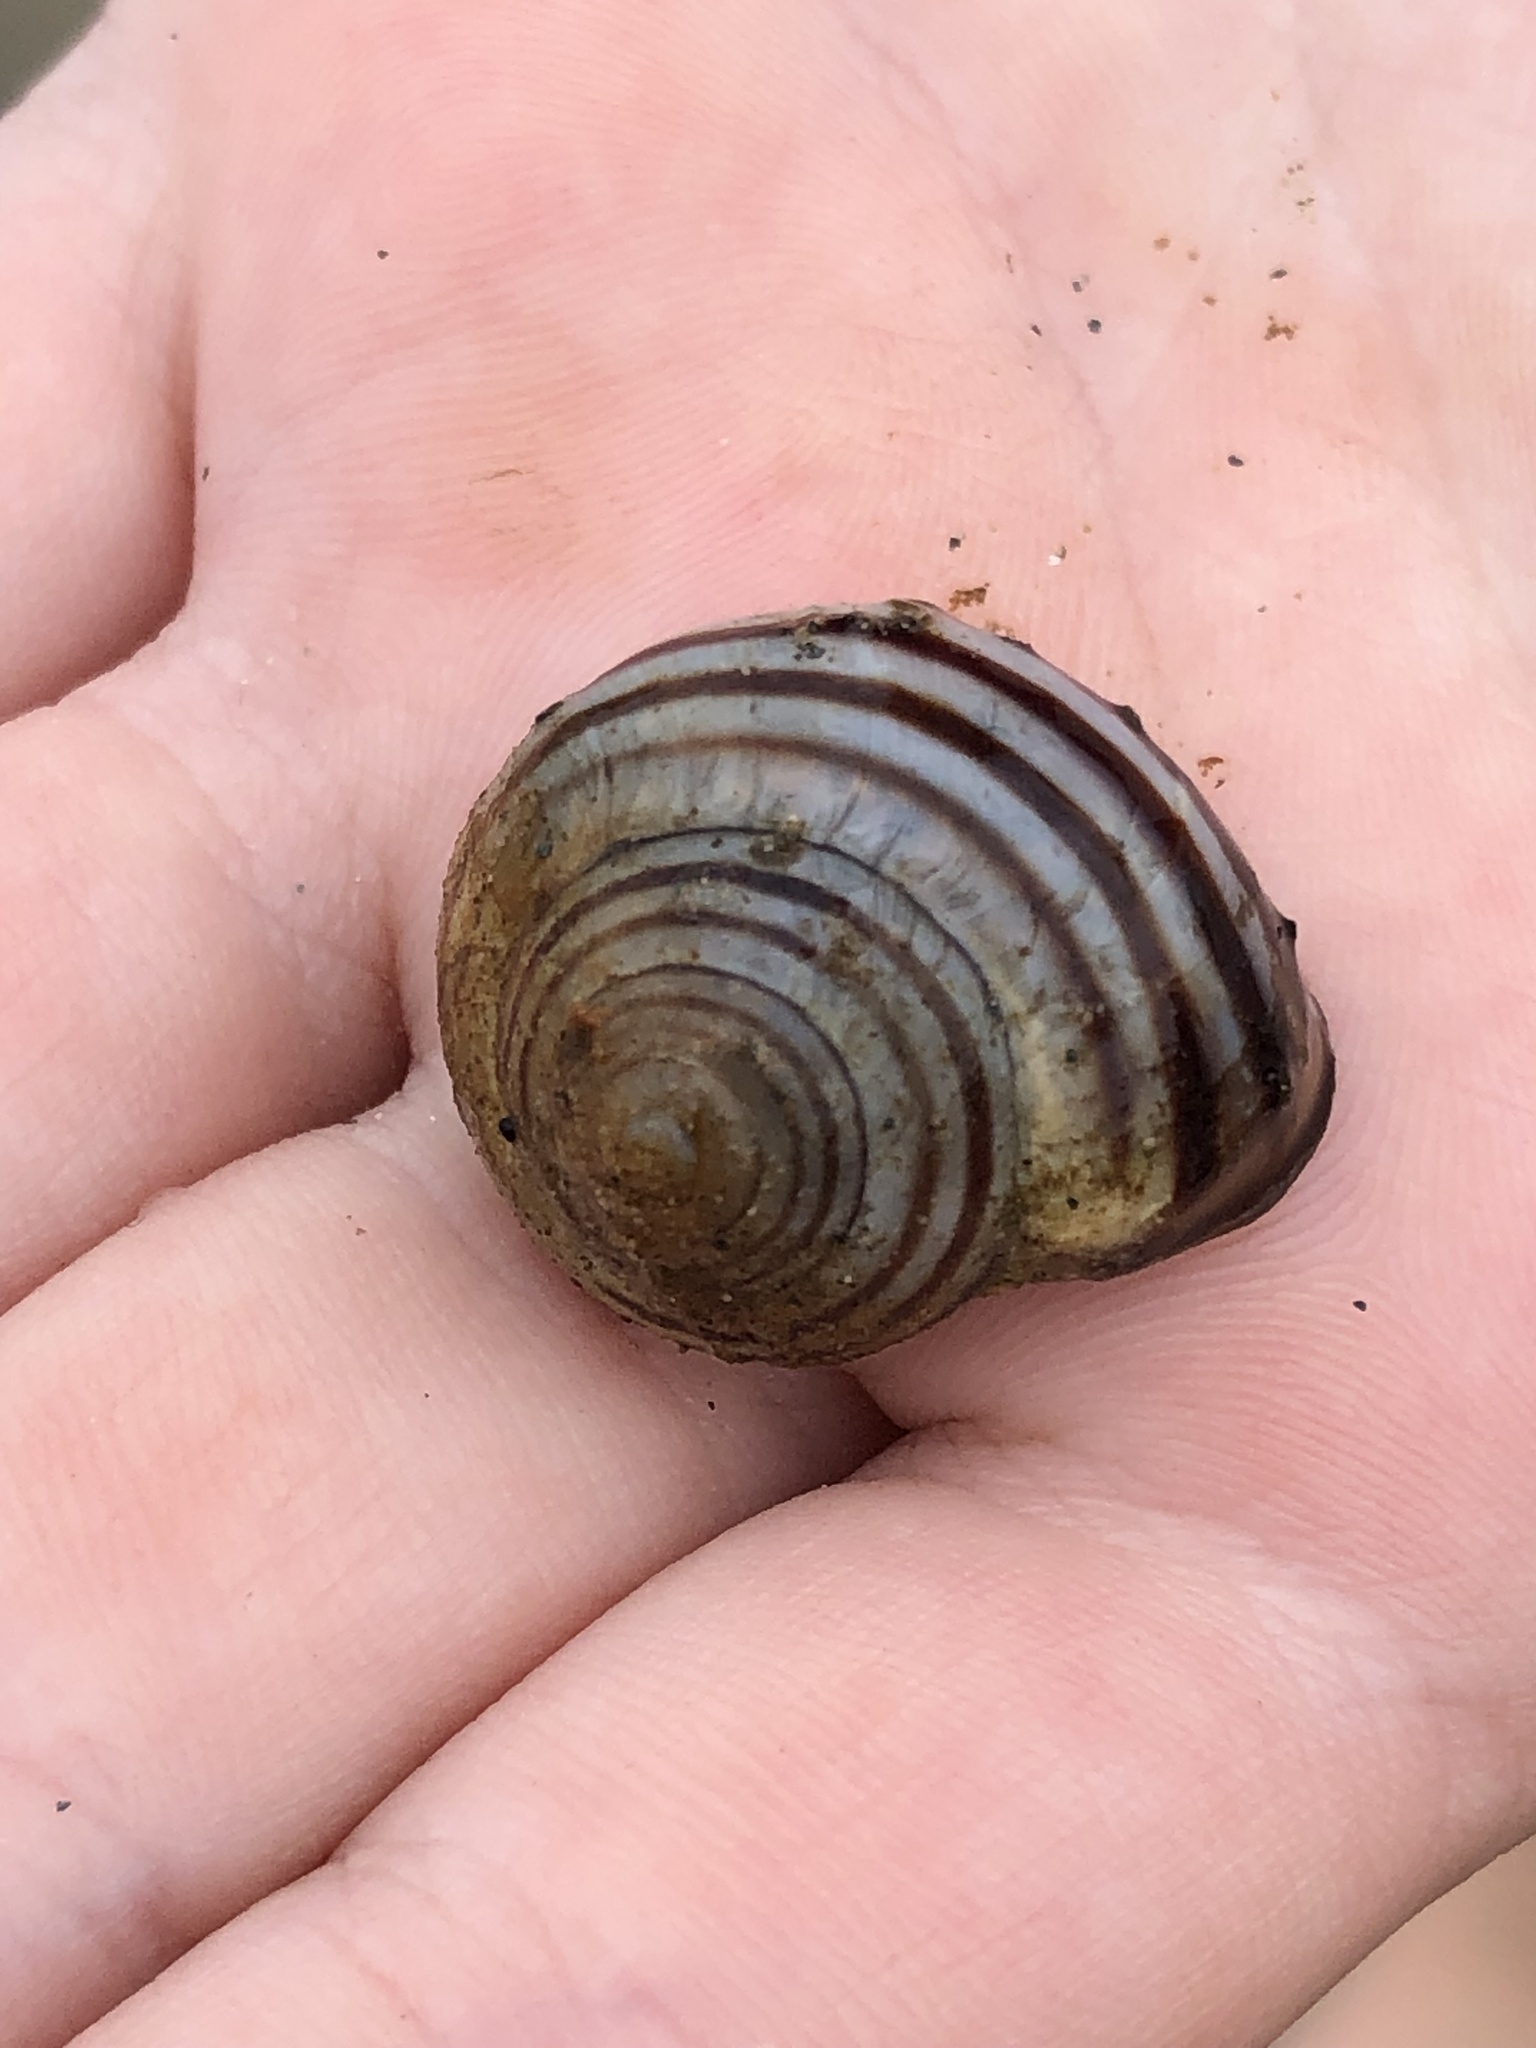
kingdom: Animalia
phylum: Mollusca
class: Gastropoda
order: Stylommatophora
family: Helicidae
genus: Cepaea
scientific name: Cepaea nemoralis
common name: Grovesnail
